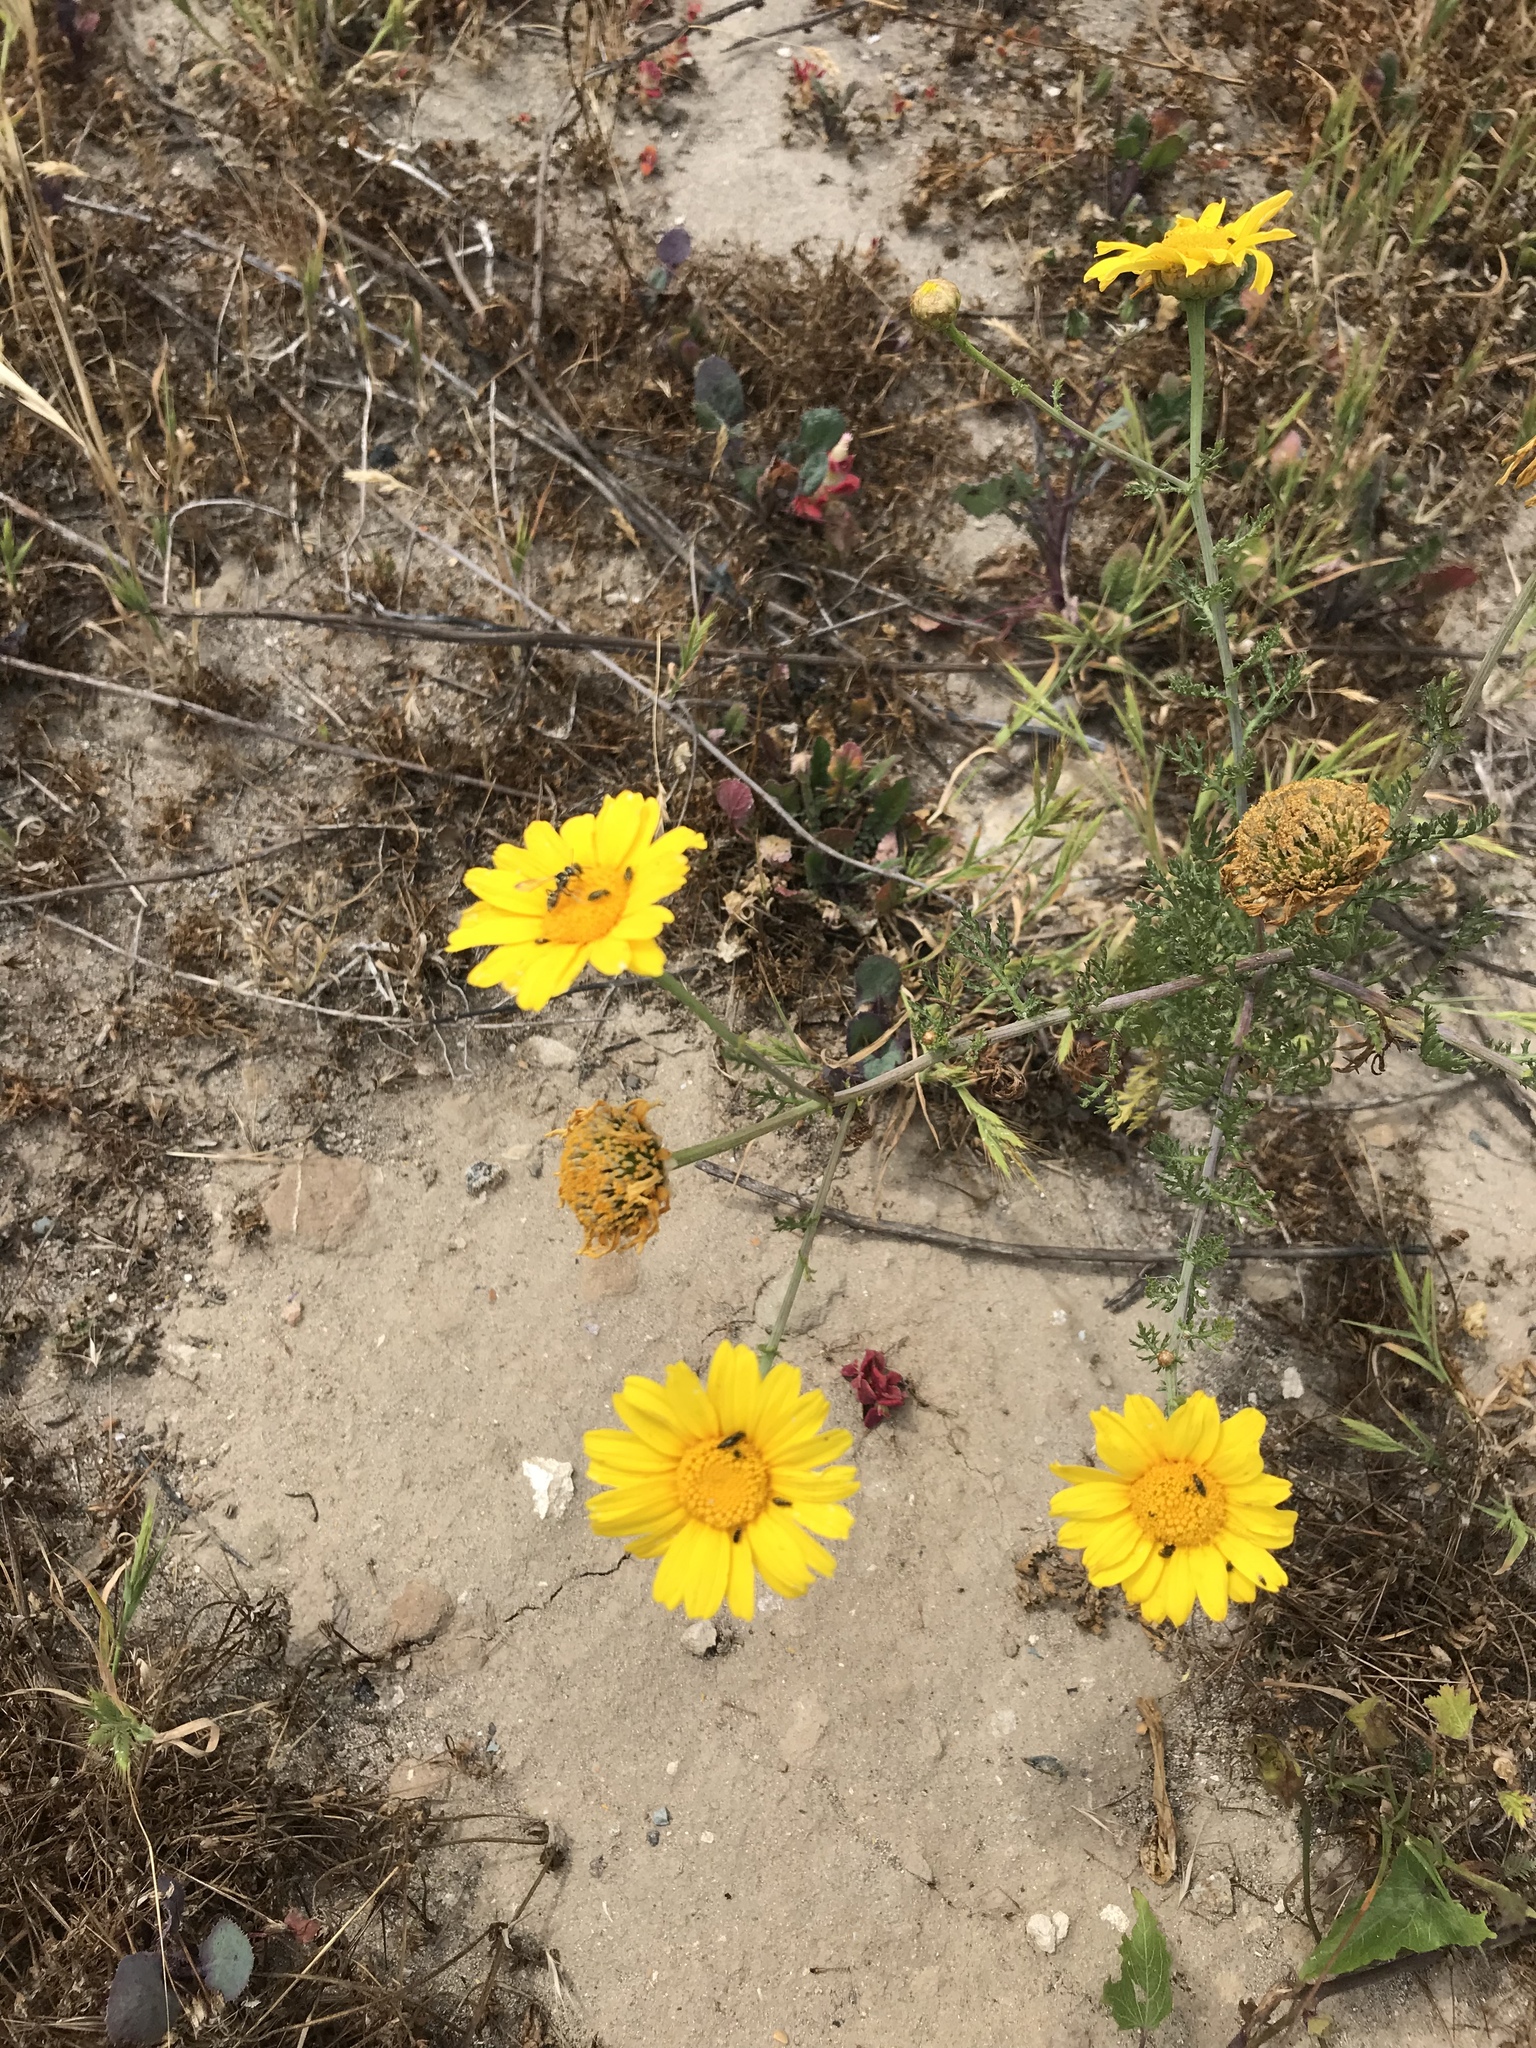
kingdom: Plantae
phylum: Tracheophyta
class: Magnoliopsida
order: Asterales
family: Asteraceae
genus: Glebionis
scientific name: Glebionis coronaria
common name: Crowndaisy
